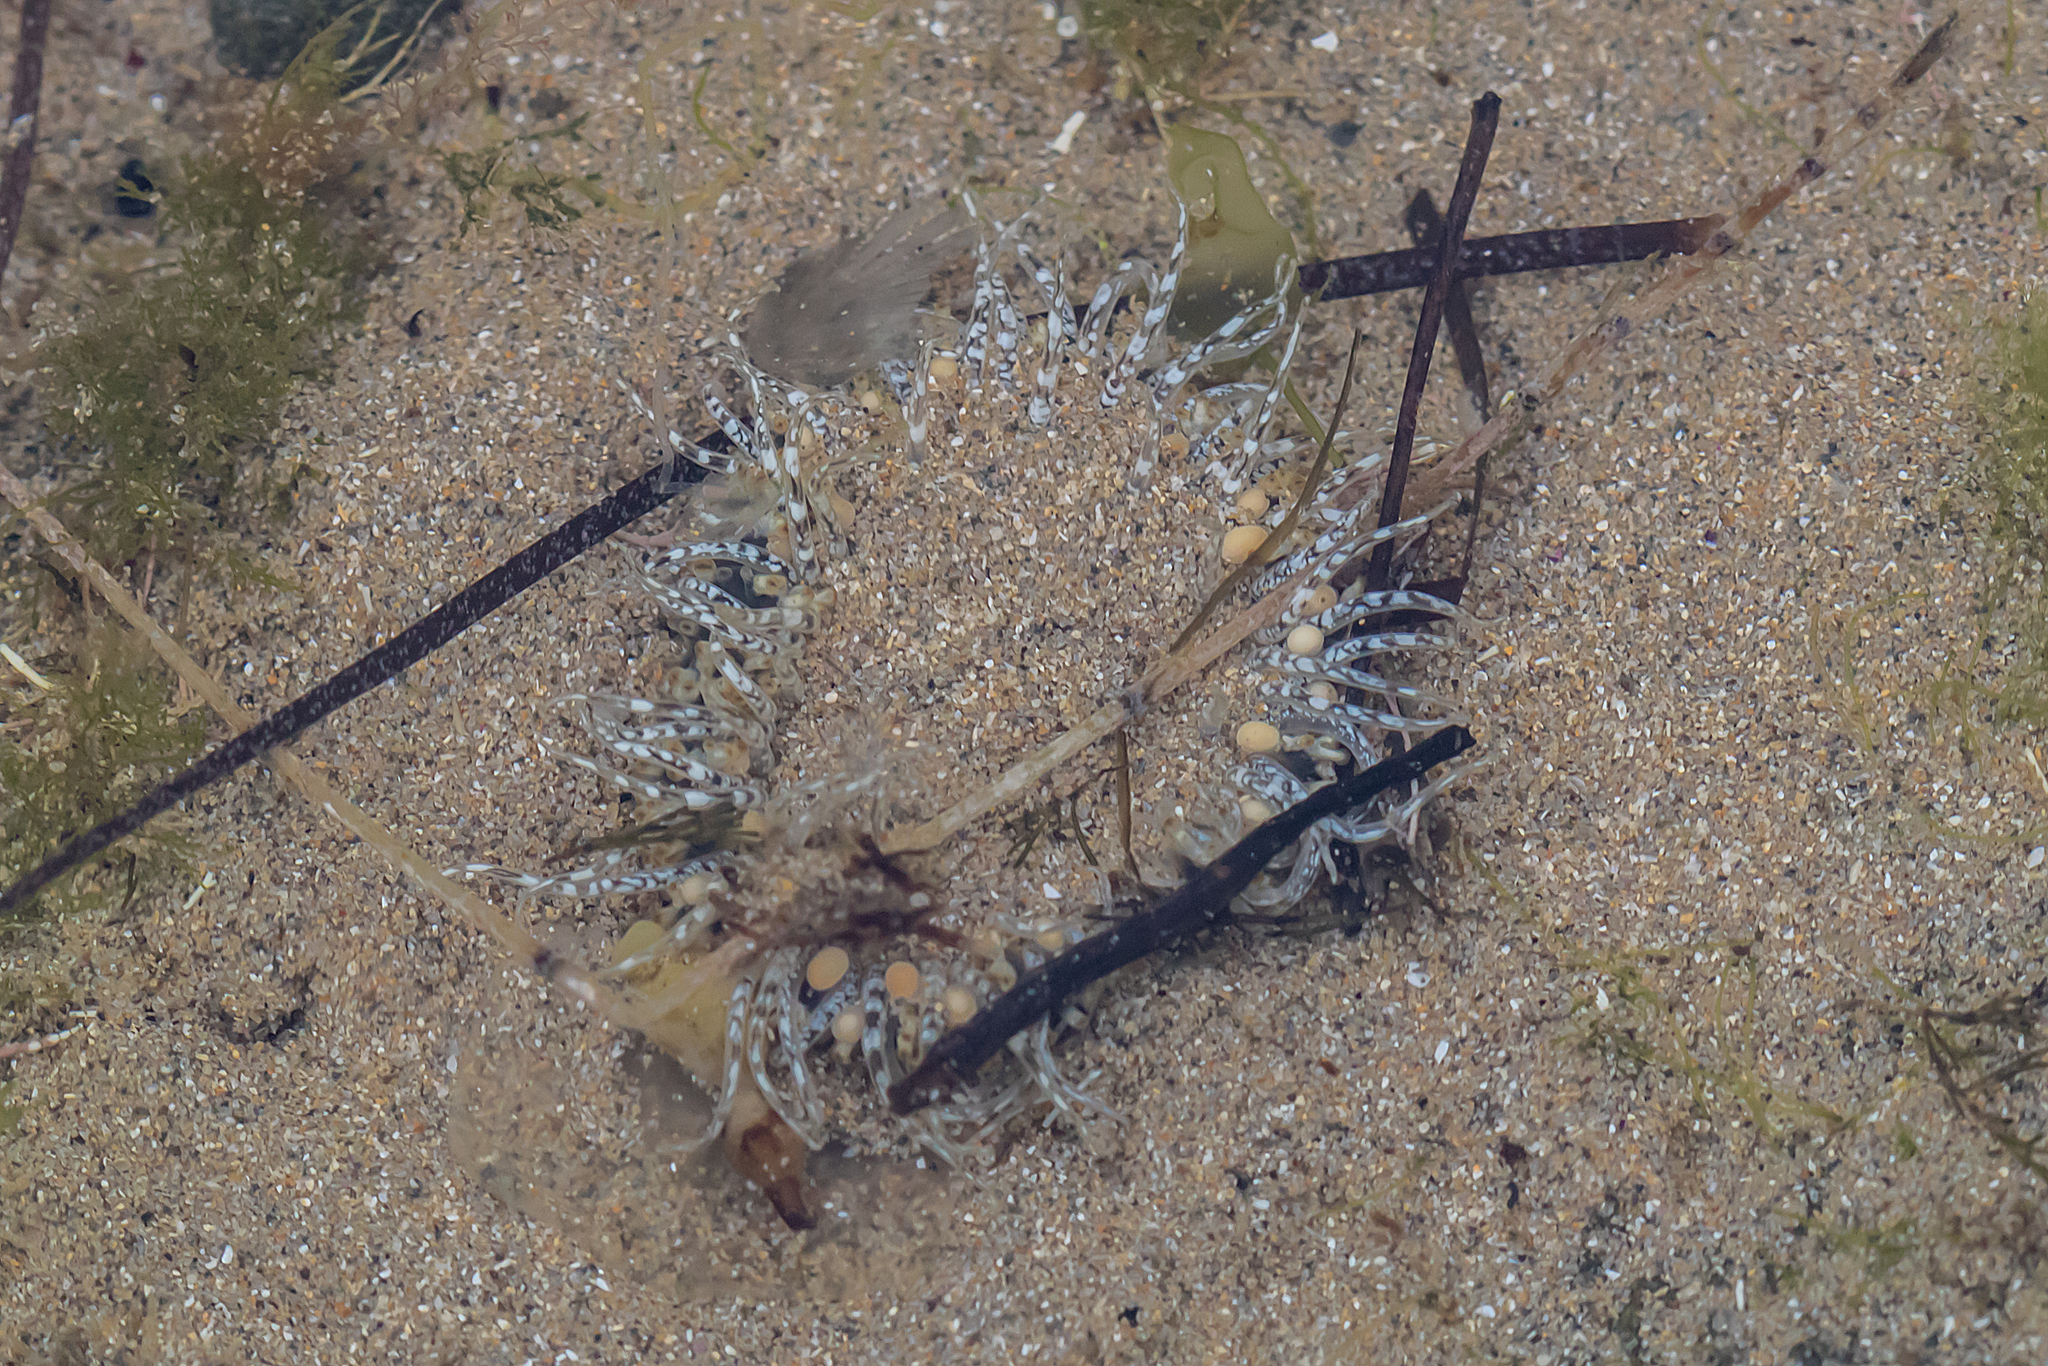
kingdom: Animalia
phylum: Cnidaria
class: Anthozoa
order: Actiniaria
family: Actiniidae
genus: Oulactis
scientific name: Oulactis muscosa
